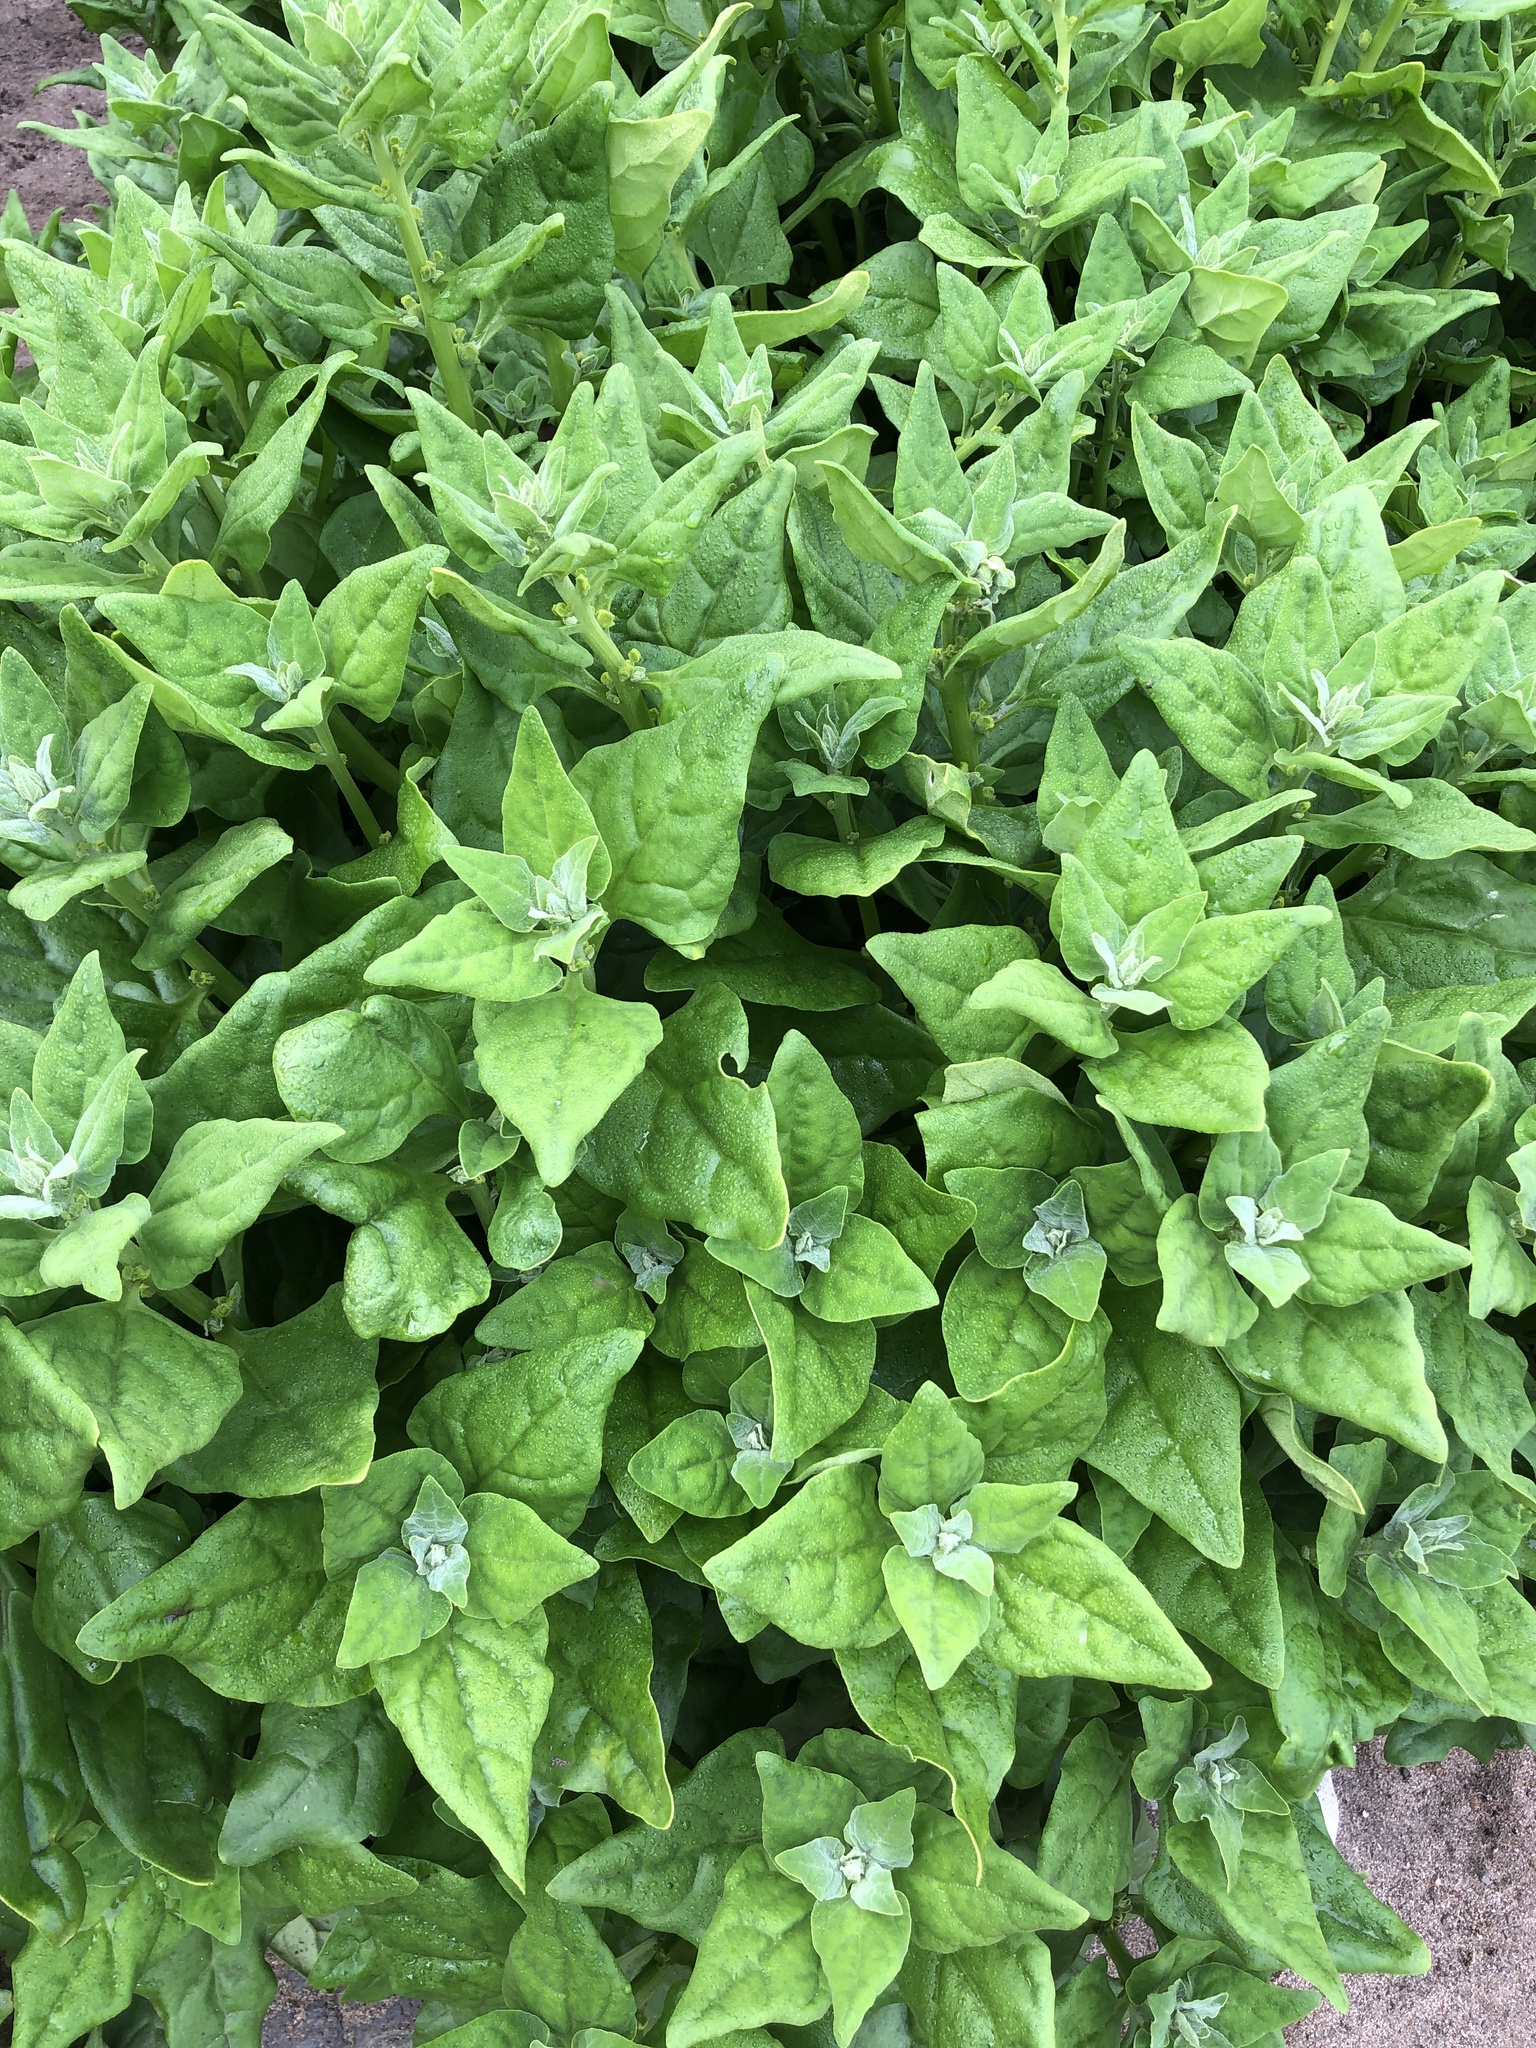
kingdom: Plantae
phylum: Tracheophyta
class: Magnoliopsida
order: Caryophyllales
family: Aizoaceae
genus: Tetragonia
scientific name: Tetragonia tetragonoides
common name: New zealand-spinach
